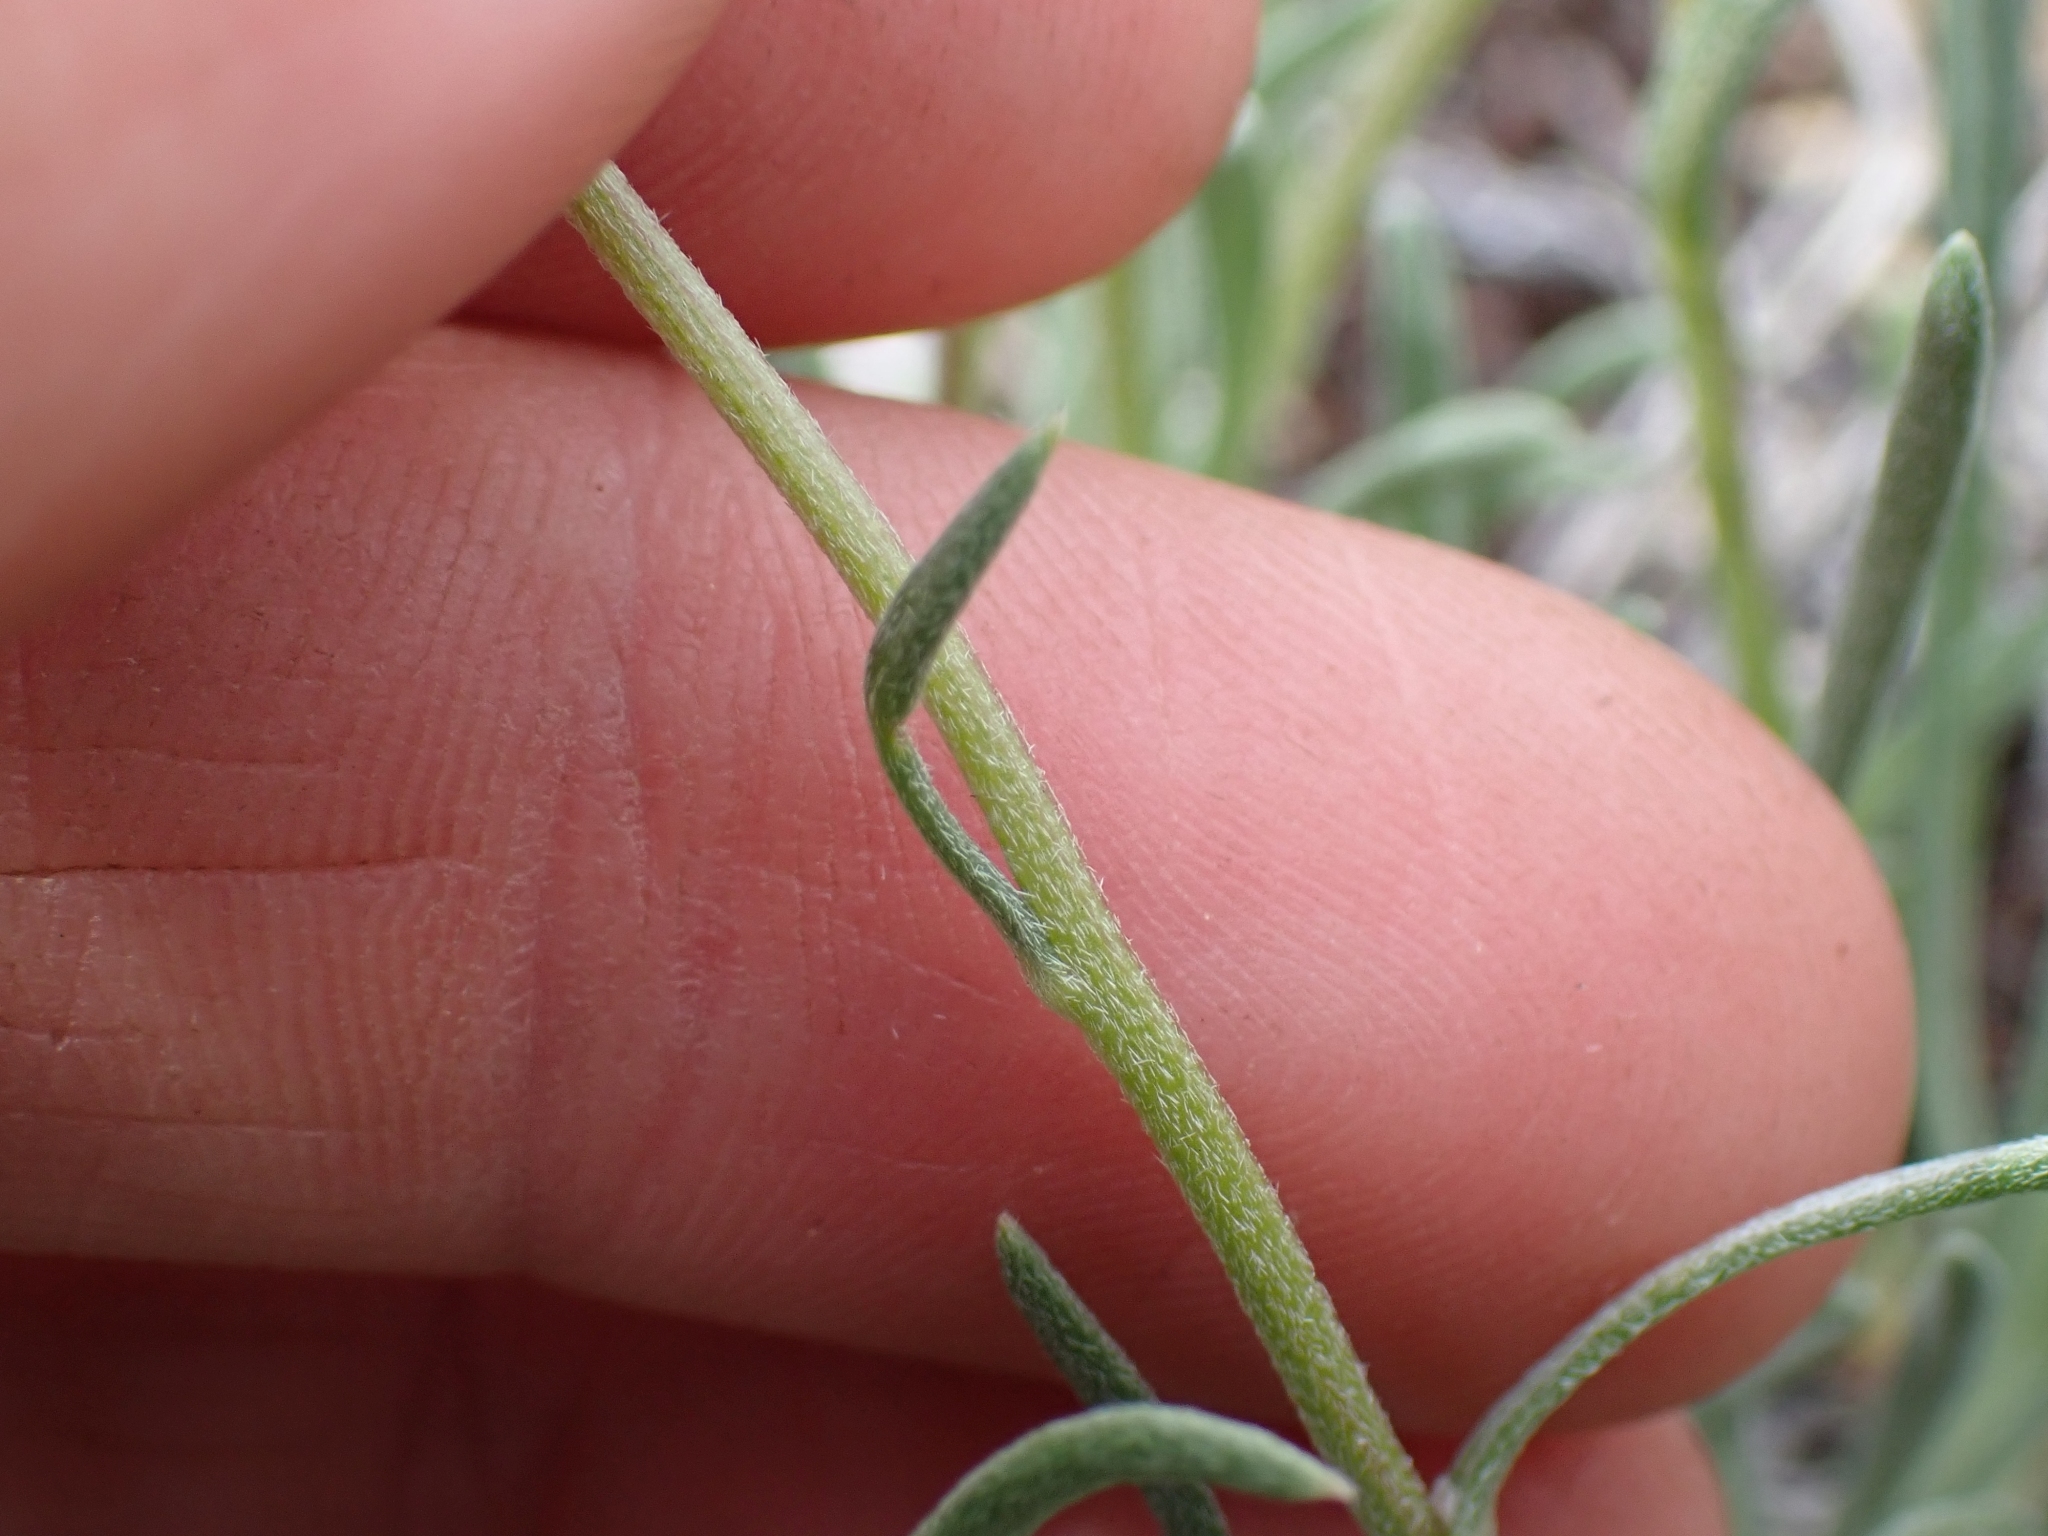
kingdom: Plantae
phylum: Tracheophyta
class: Magnoliopsida
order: Asterales
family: Asteraceae
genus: Erigeron
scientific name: Erigeron linearis
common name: Desert yellow fleabane
